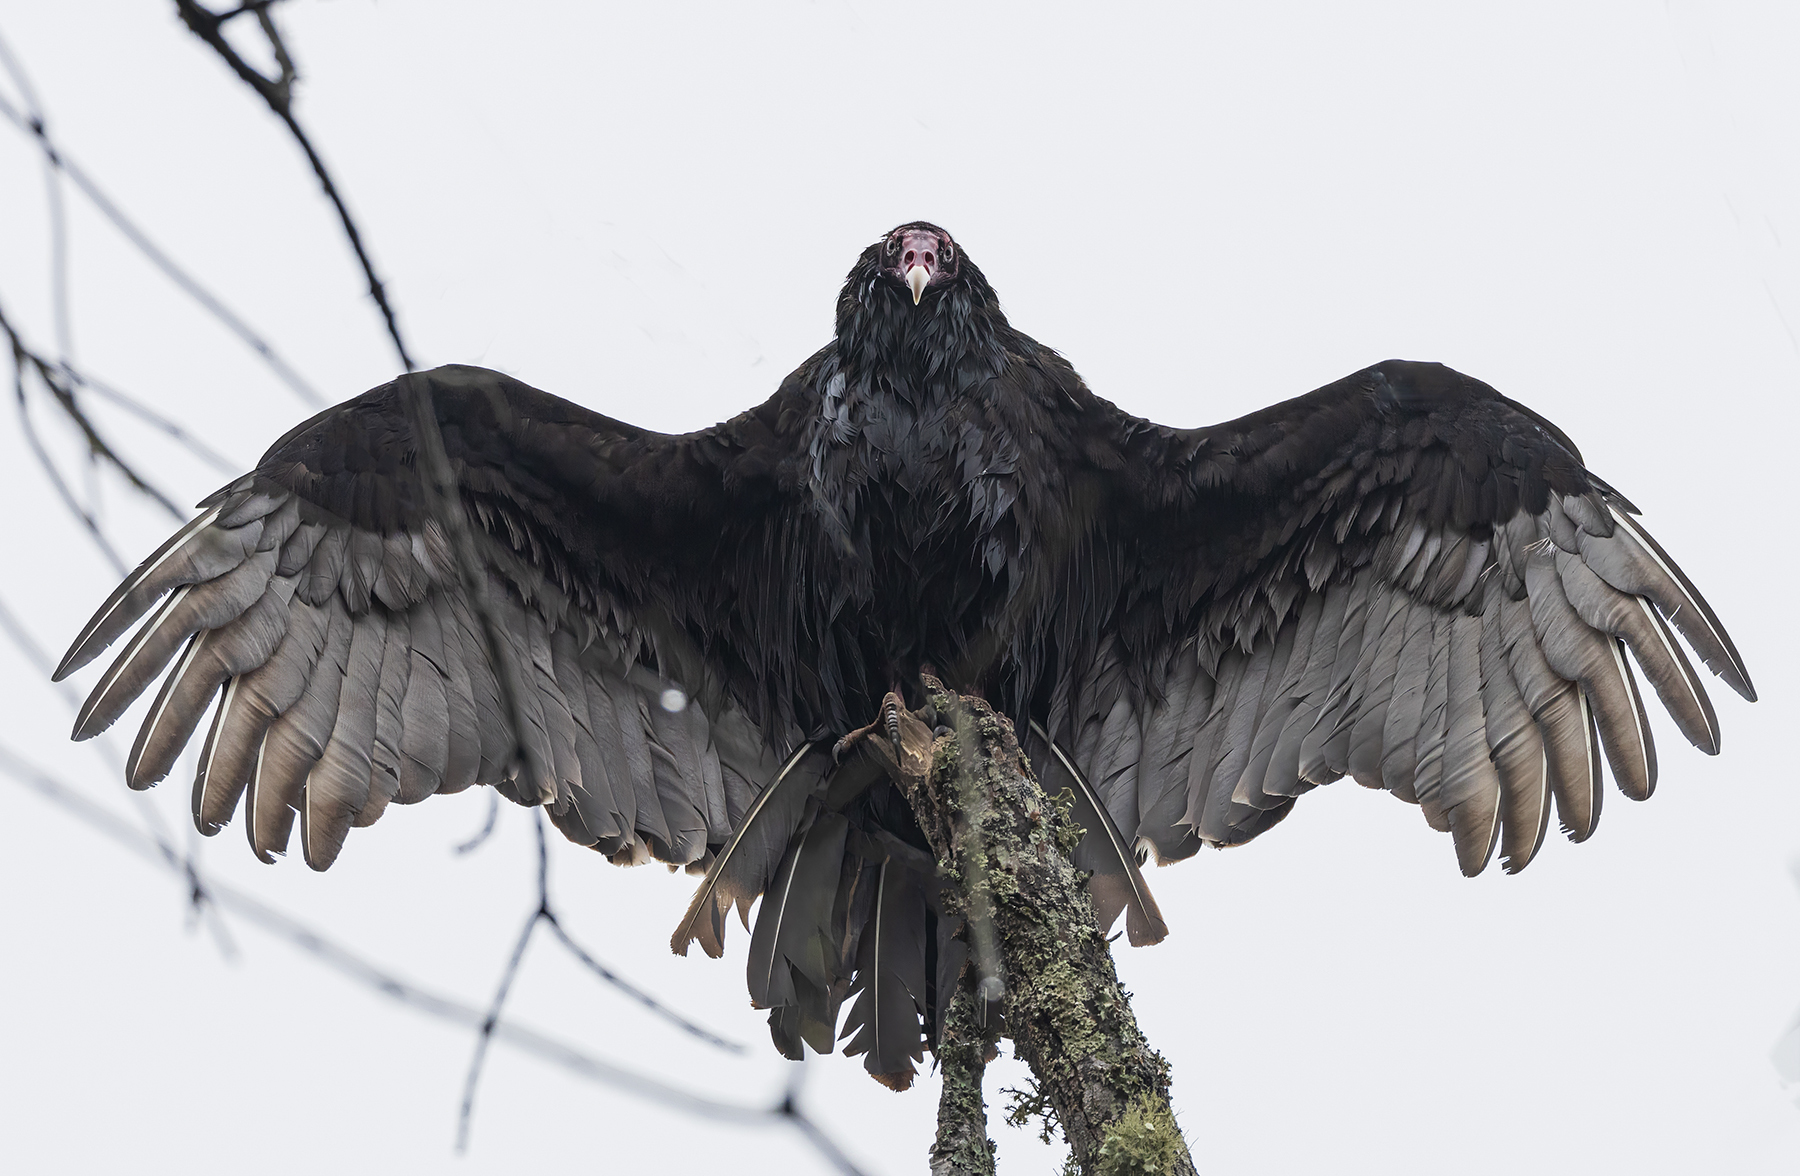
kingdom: Animalia
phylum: Chordata
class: Aves
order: Accipitriformes
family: Cathartidae
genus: Cathartes
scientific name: Cathartes aura
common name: Turkey vulture
